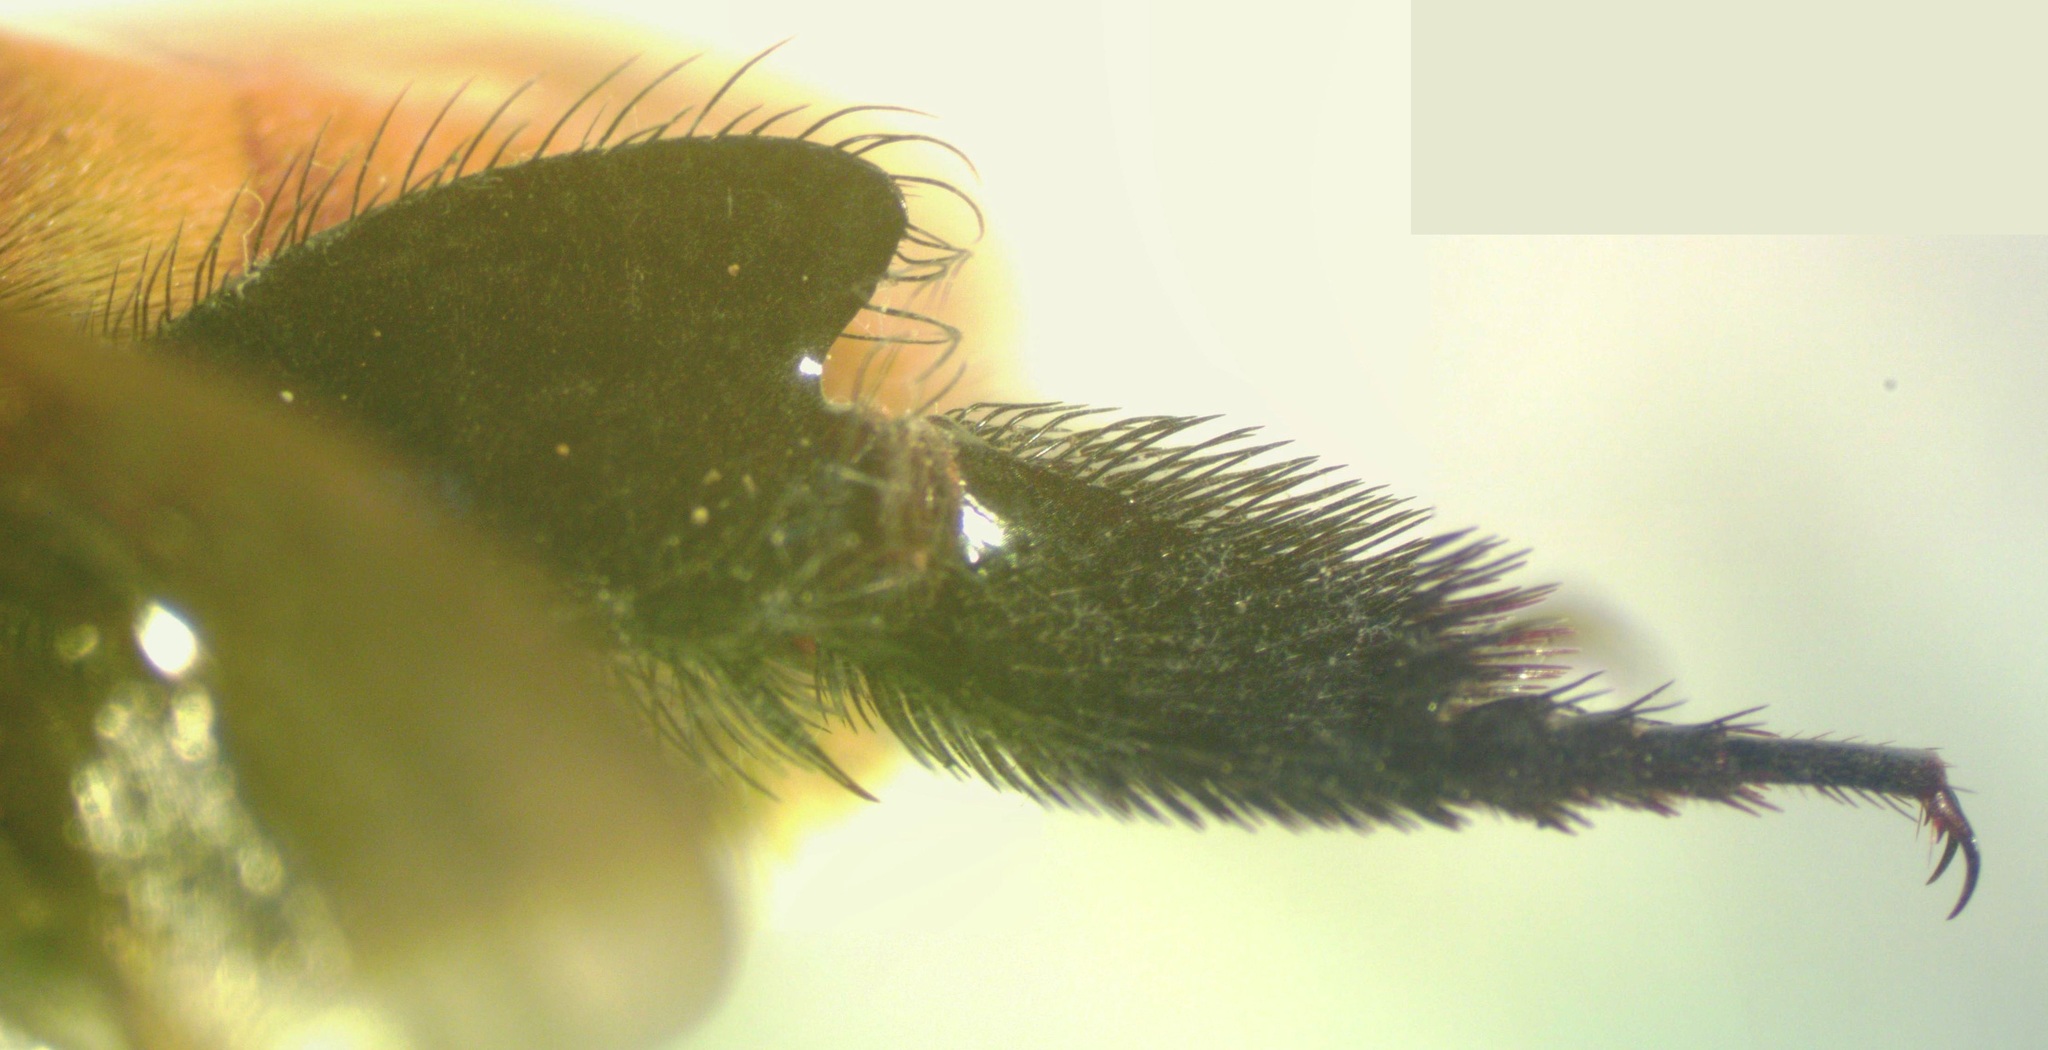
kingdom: Animalia
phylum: Arthropoda
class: Insecta
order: Hymenoptera
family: Apidae
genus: Eulaema
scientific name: Eulaema cingulata
